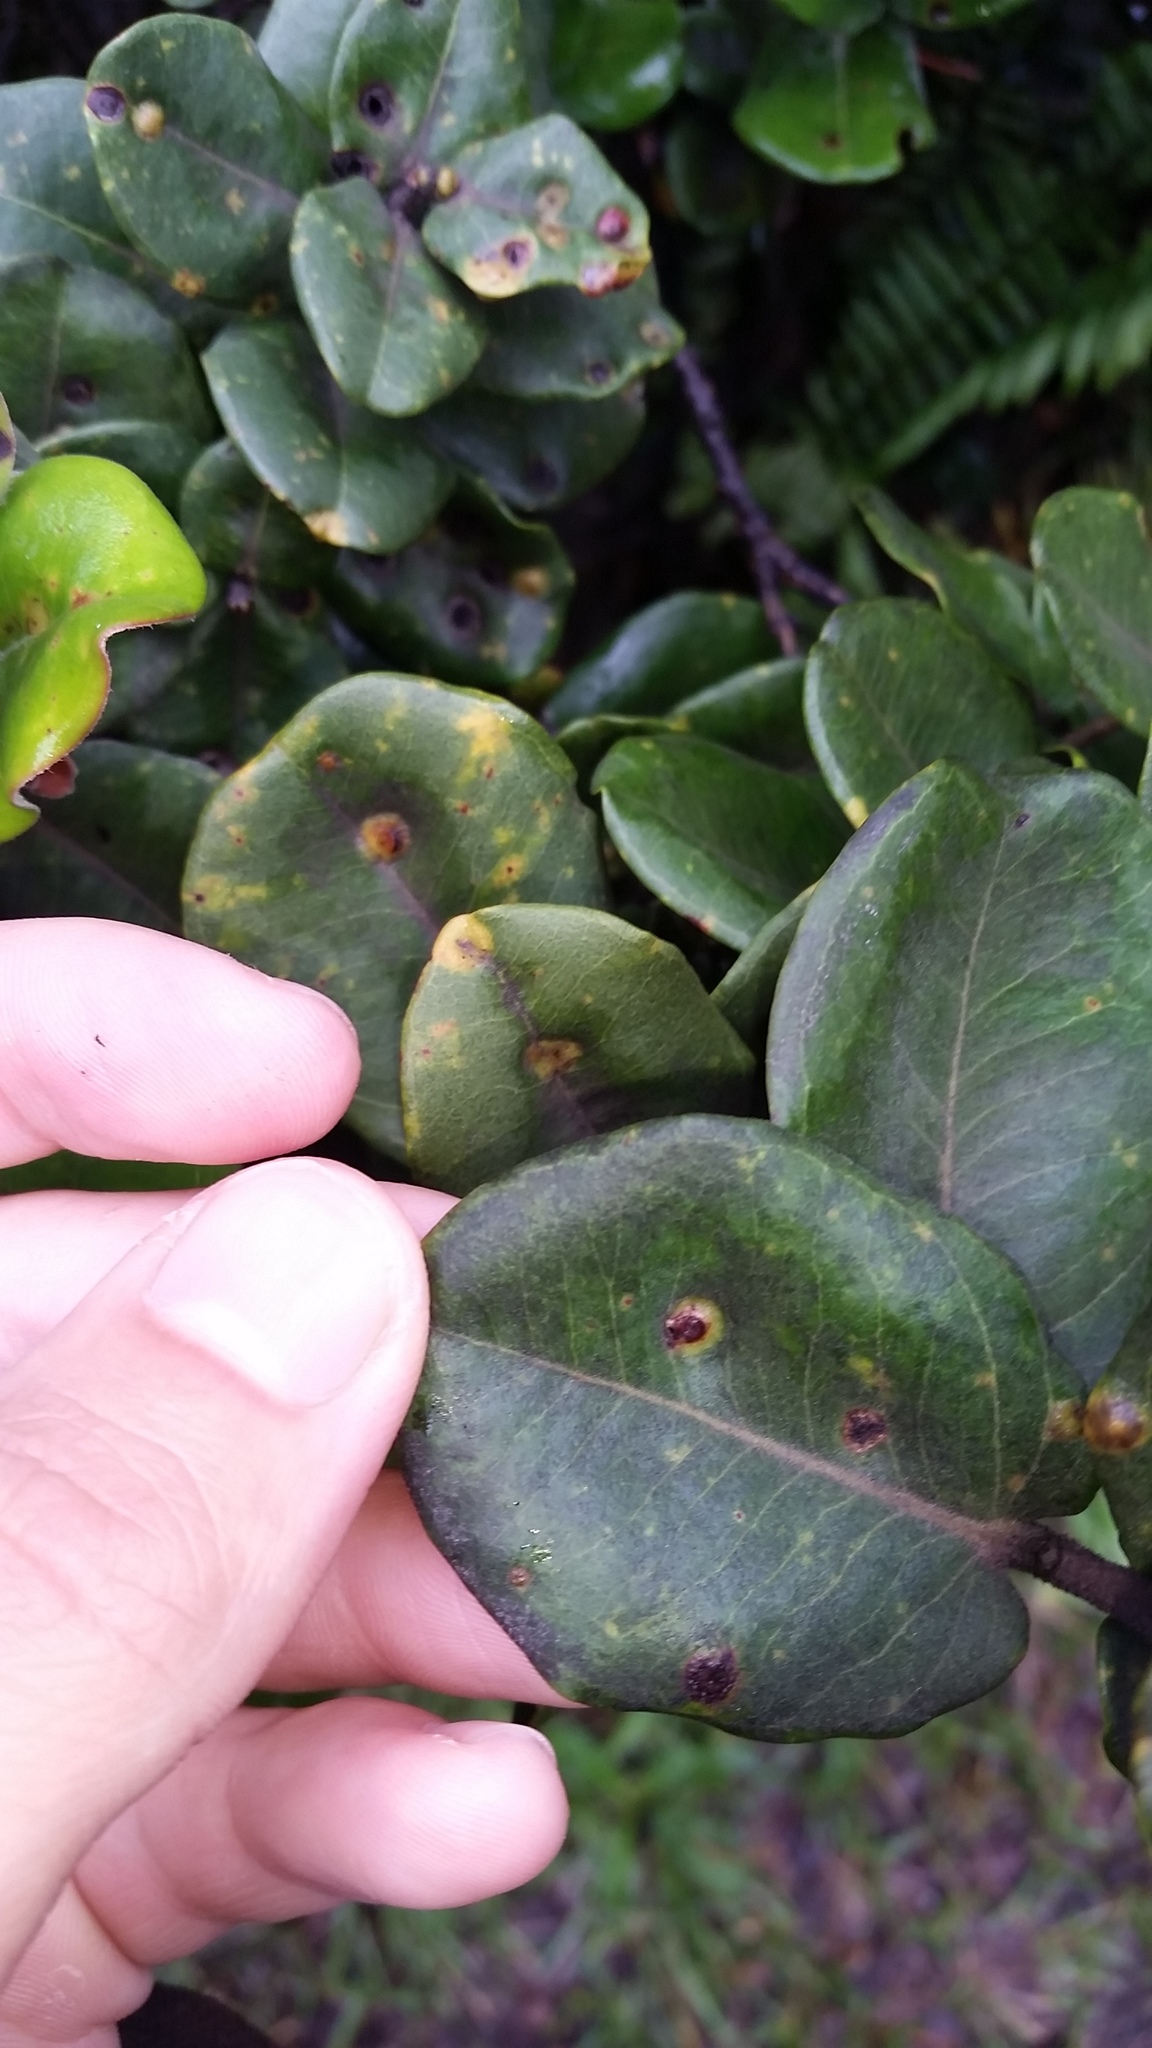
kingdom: Plantae
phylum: Tracheophyta
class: Magnoliopsida
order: Myrtales
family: Myrtaceae
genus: Metrosideros
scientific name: Metrosideros polymorpha
